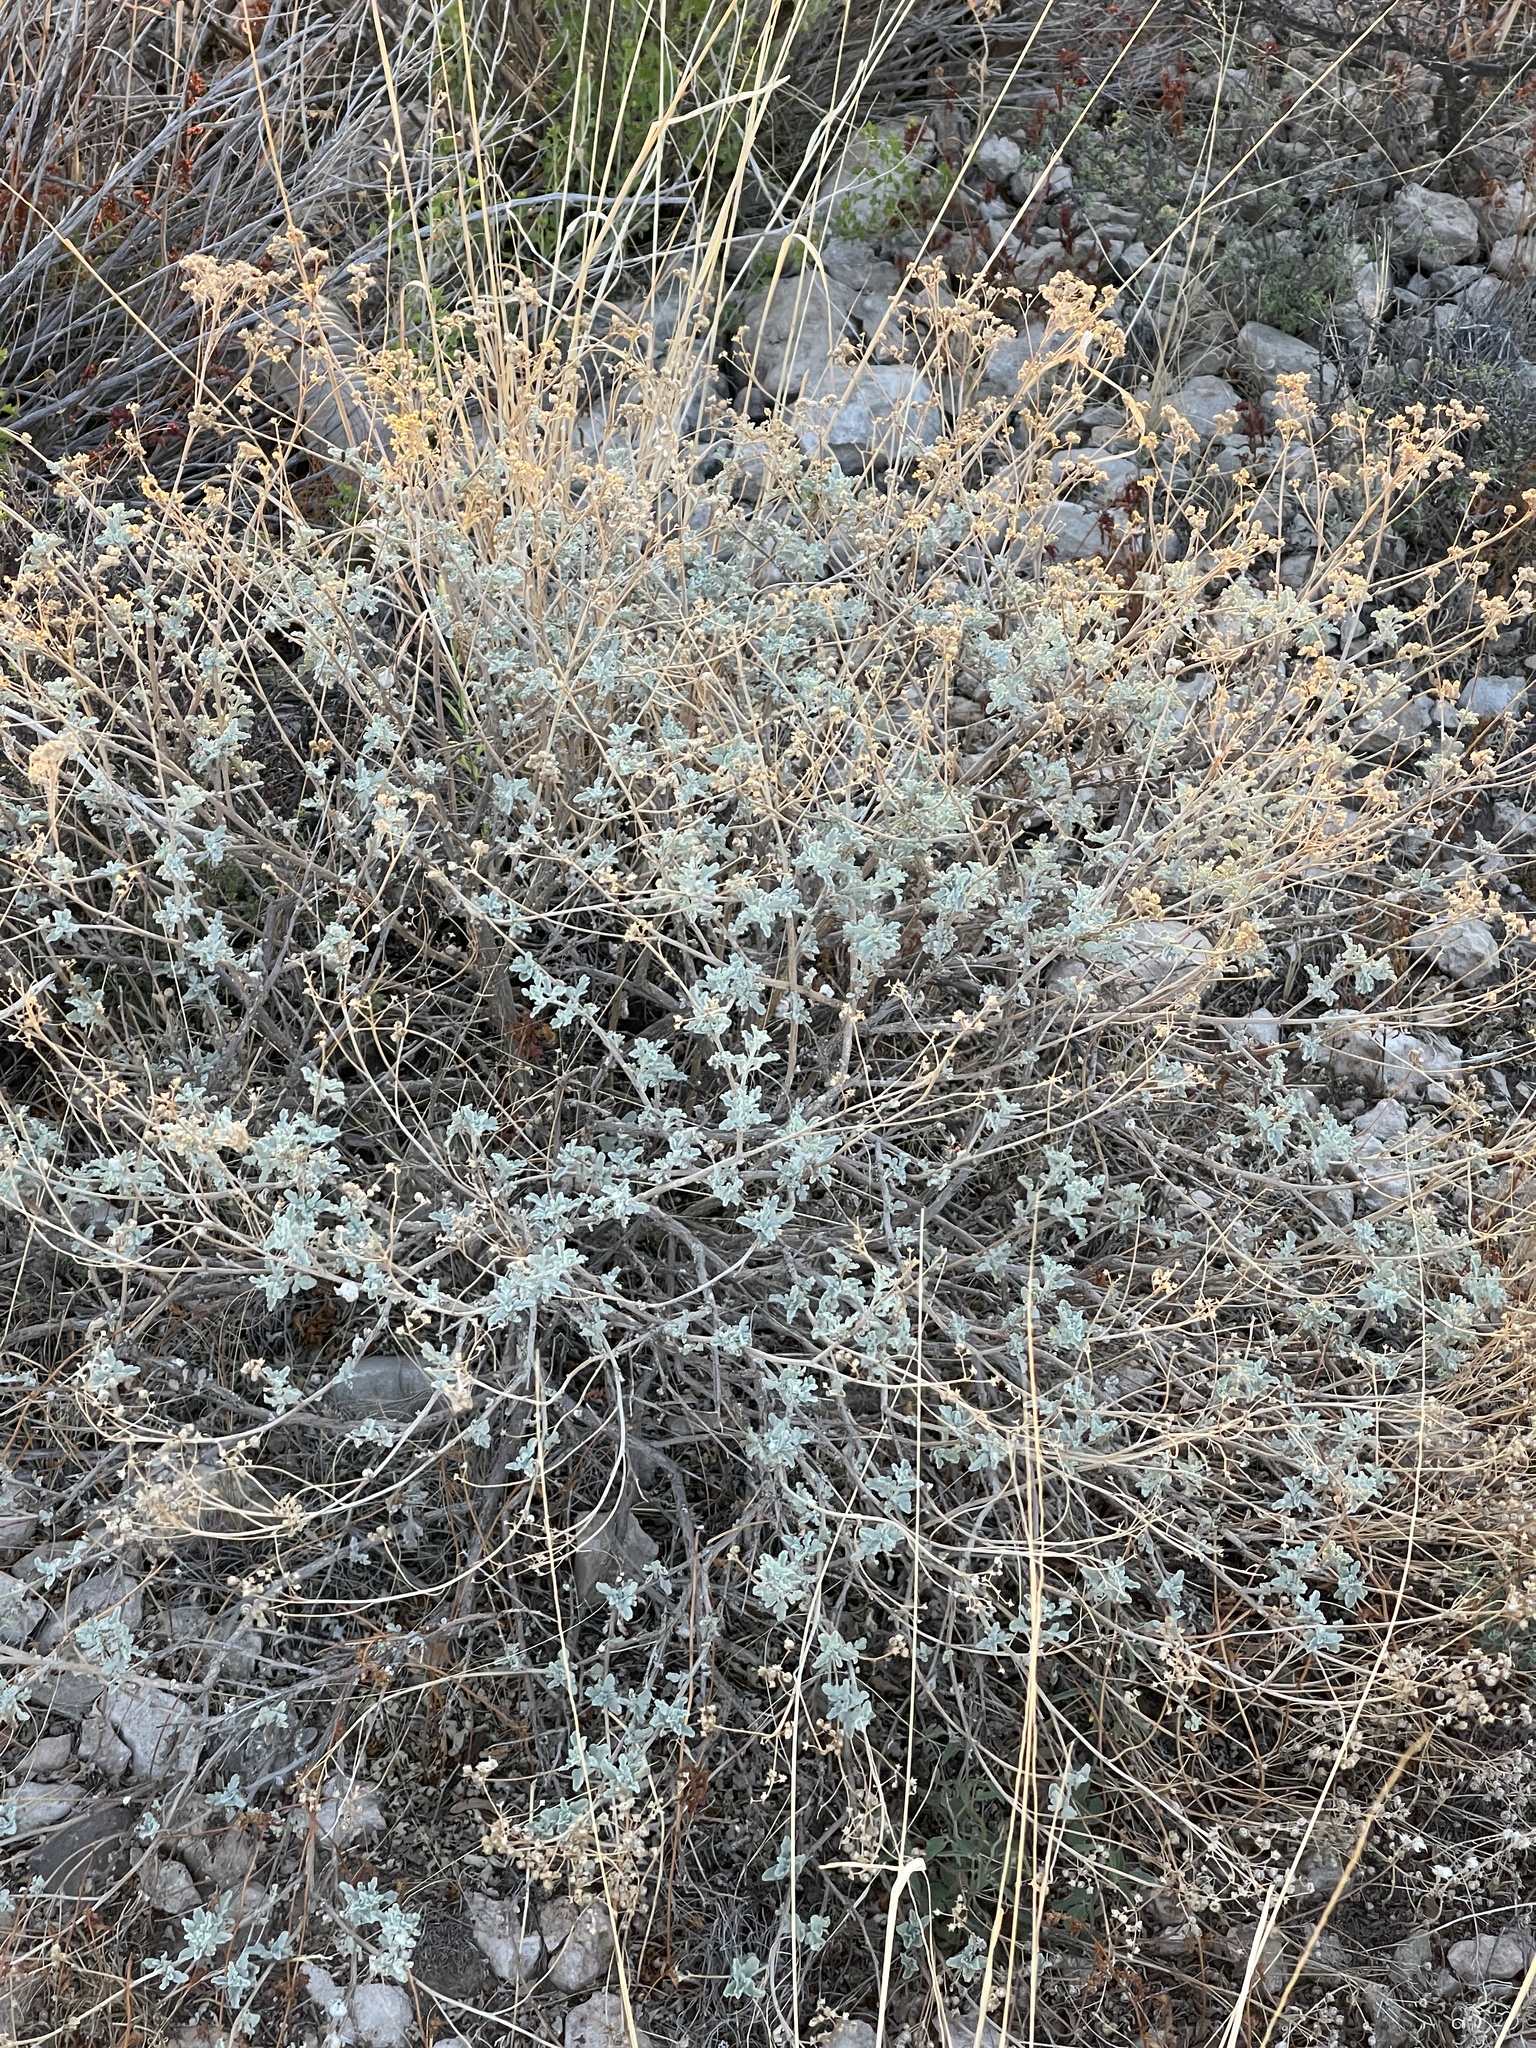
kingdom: Plantae
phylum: Tracheophyta
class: Magnoliopsida
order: Asterales
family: Asteraceae
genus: Parthenium
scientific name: Parthenium incanum
